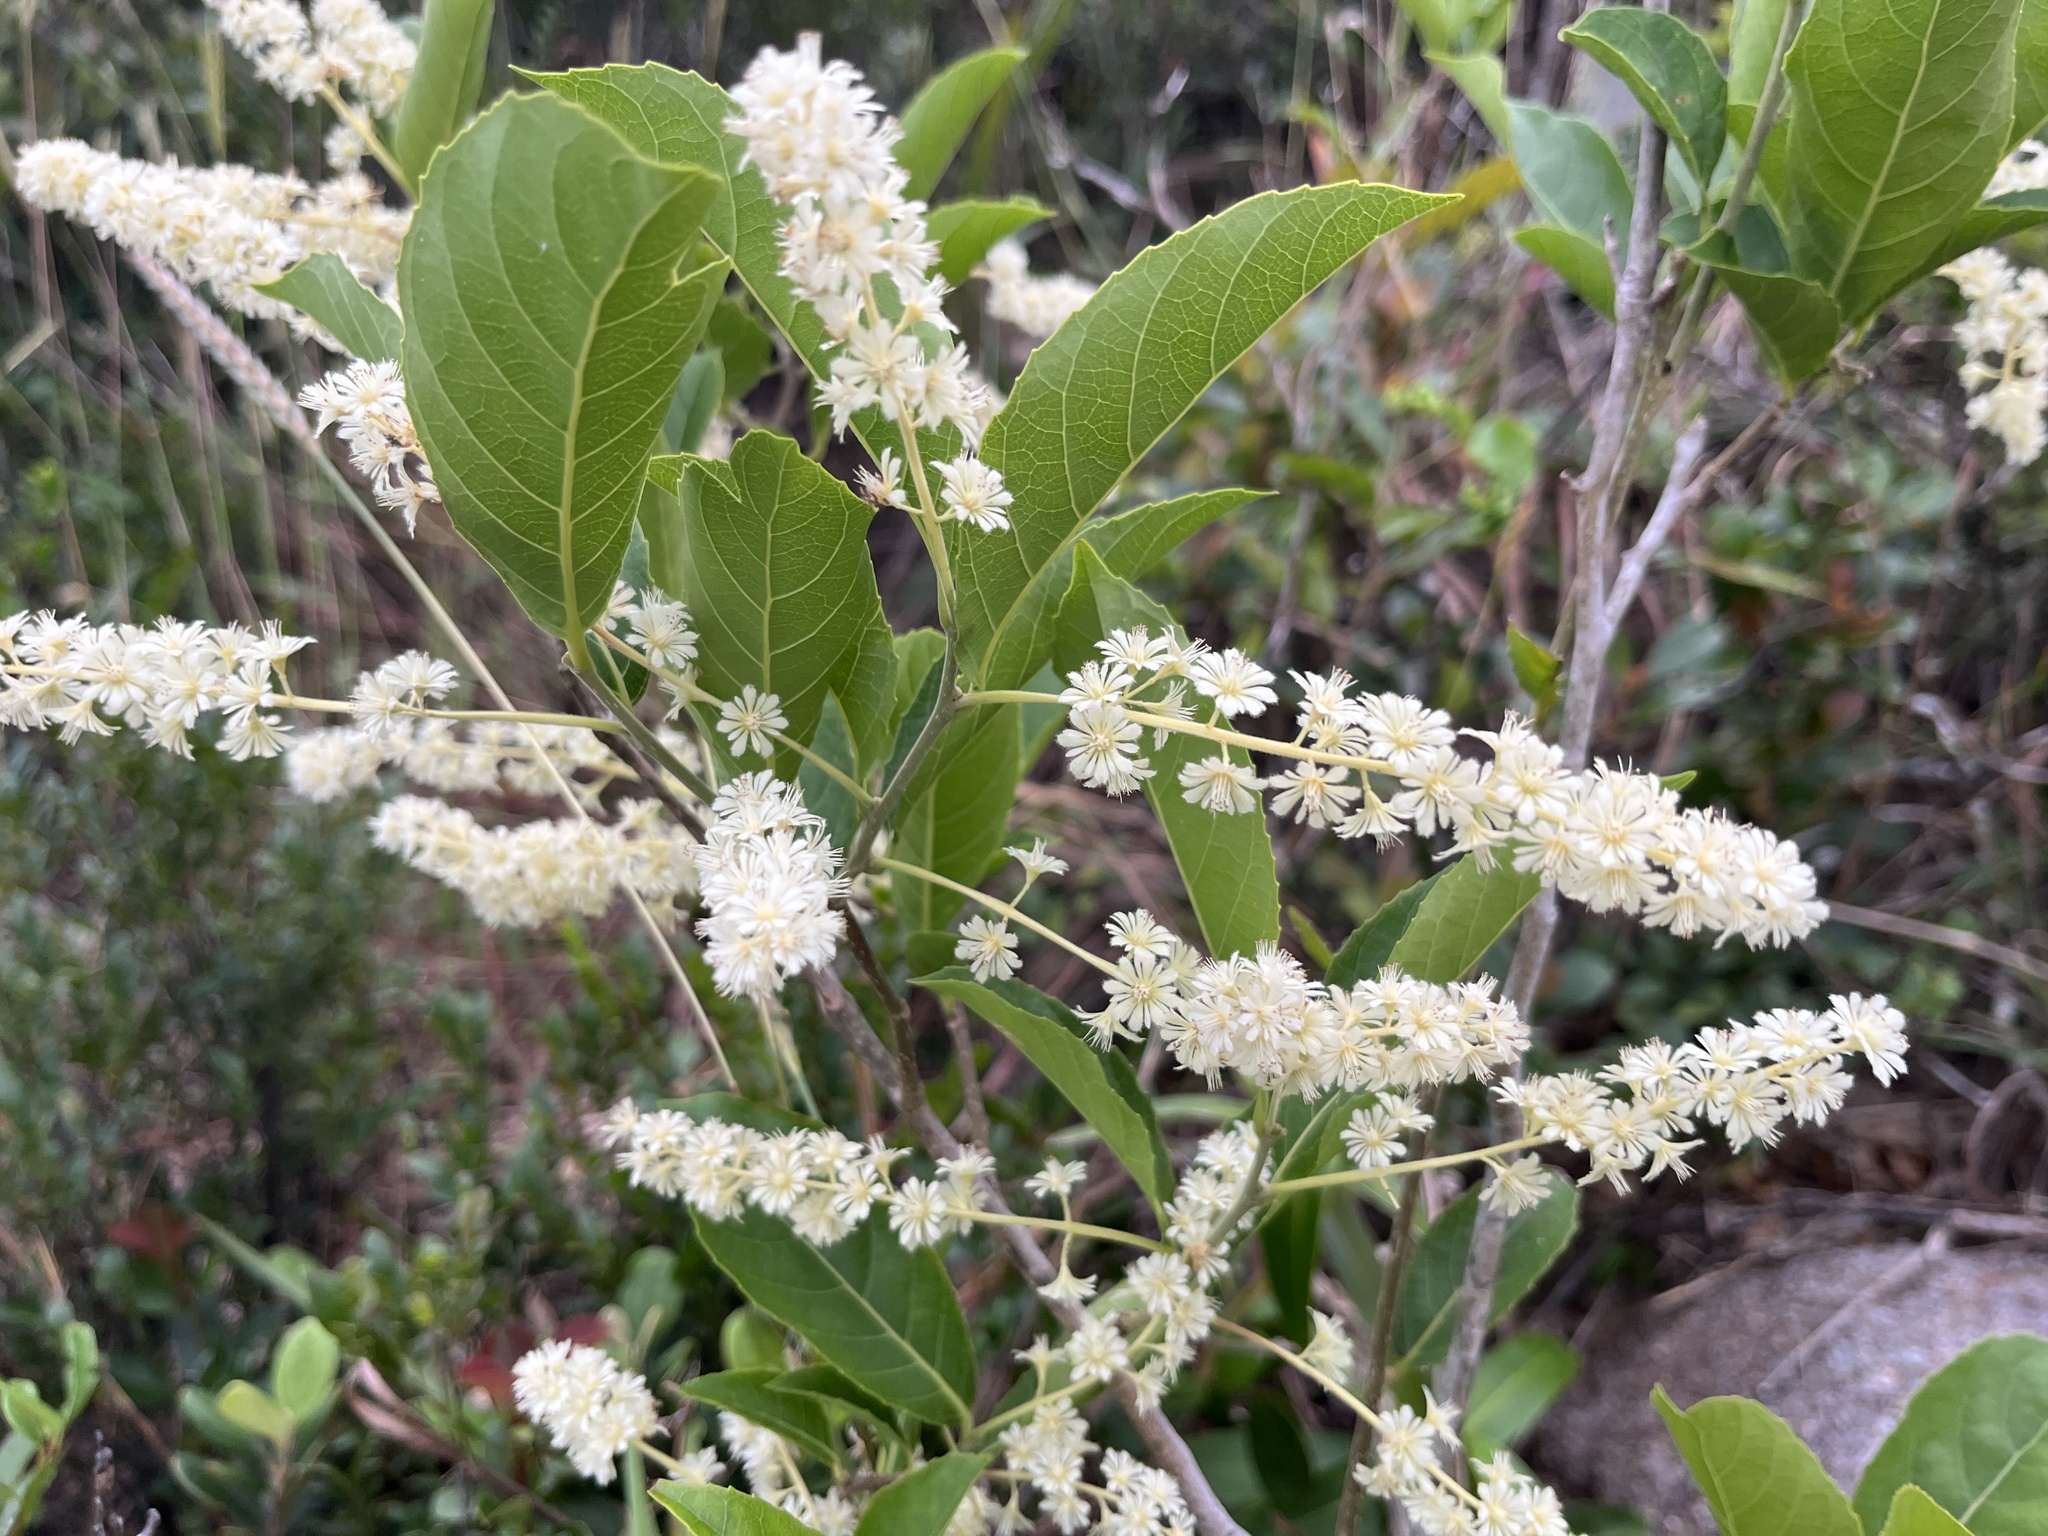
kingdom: Plantae
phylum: Tracheophyta
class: Magnoliopsida
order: Malpighiales
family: Salicaceae
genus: Homalium
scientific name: Homalium cochinchinensis
